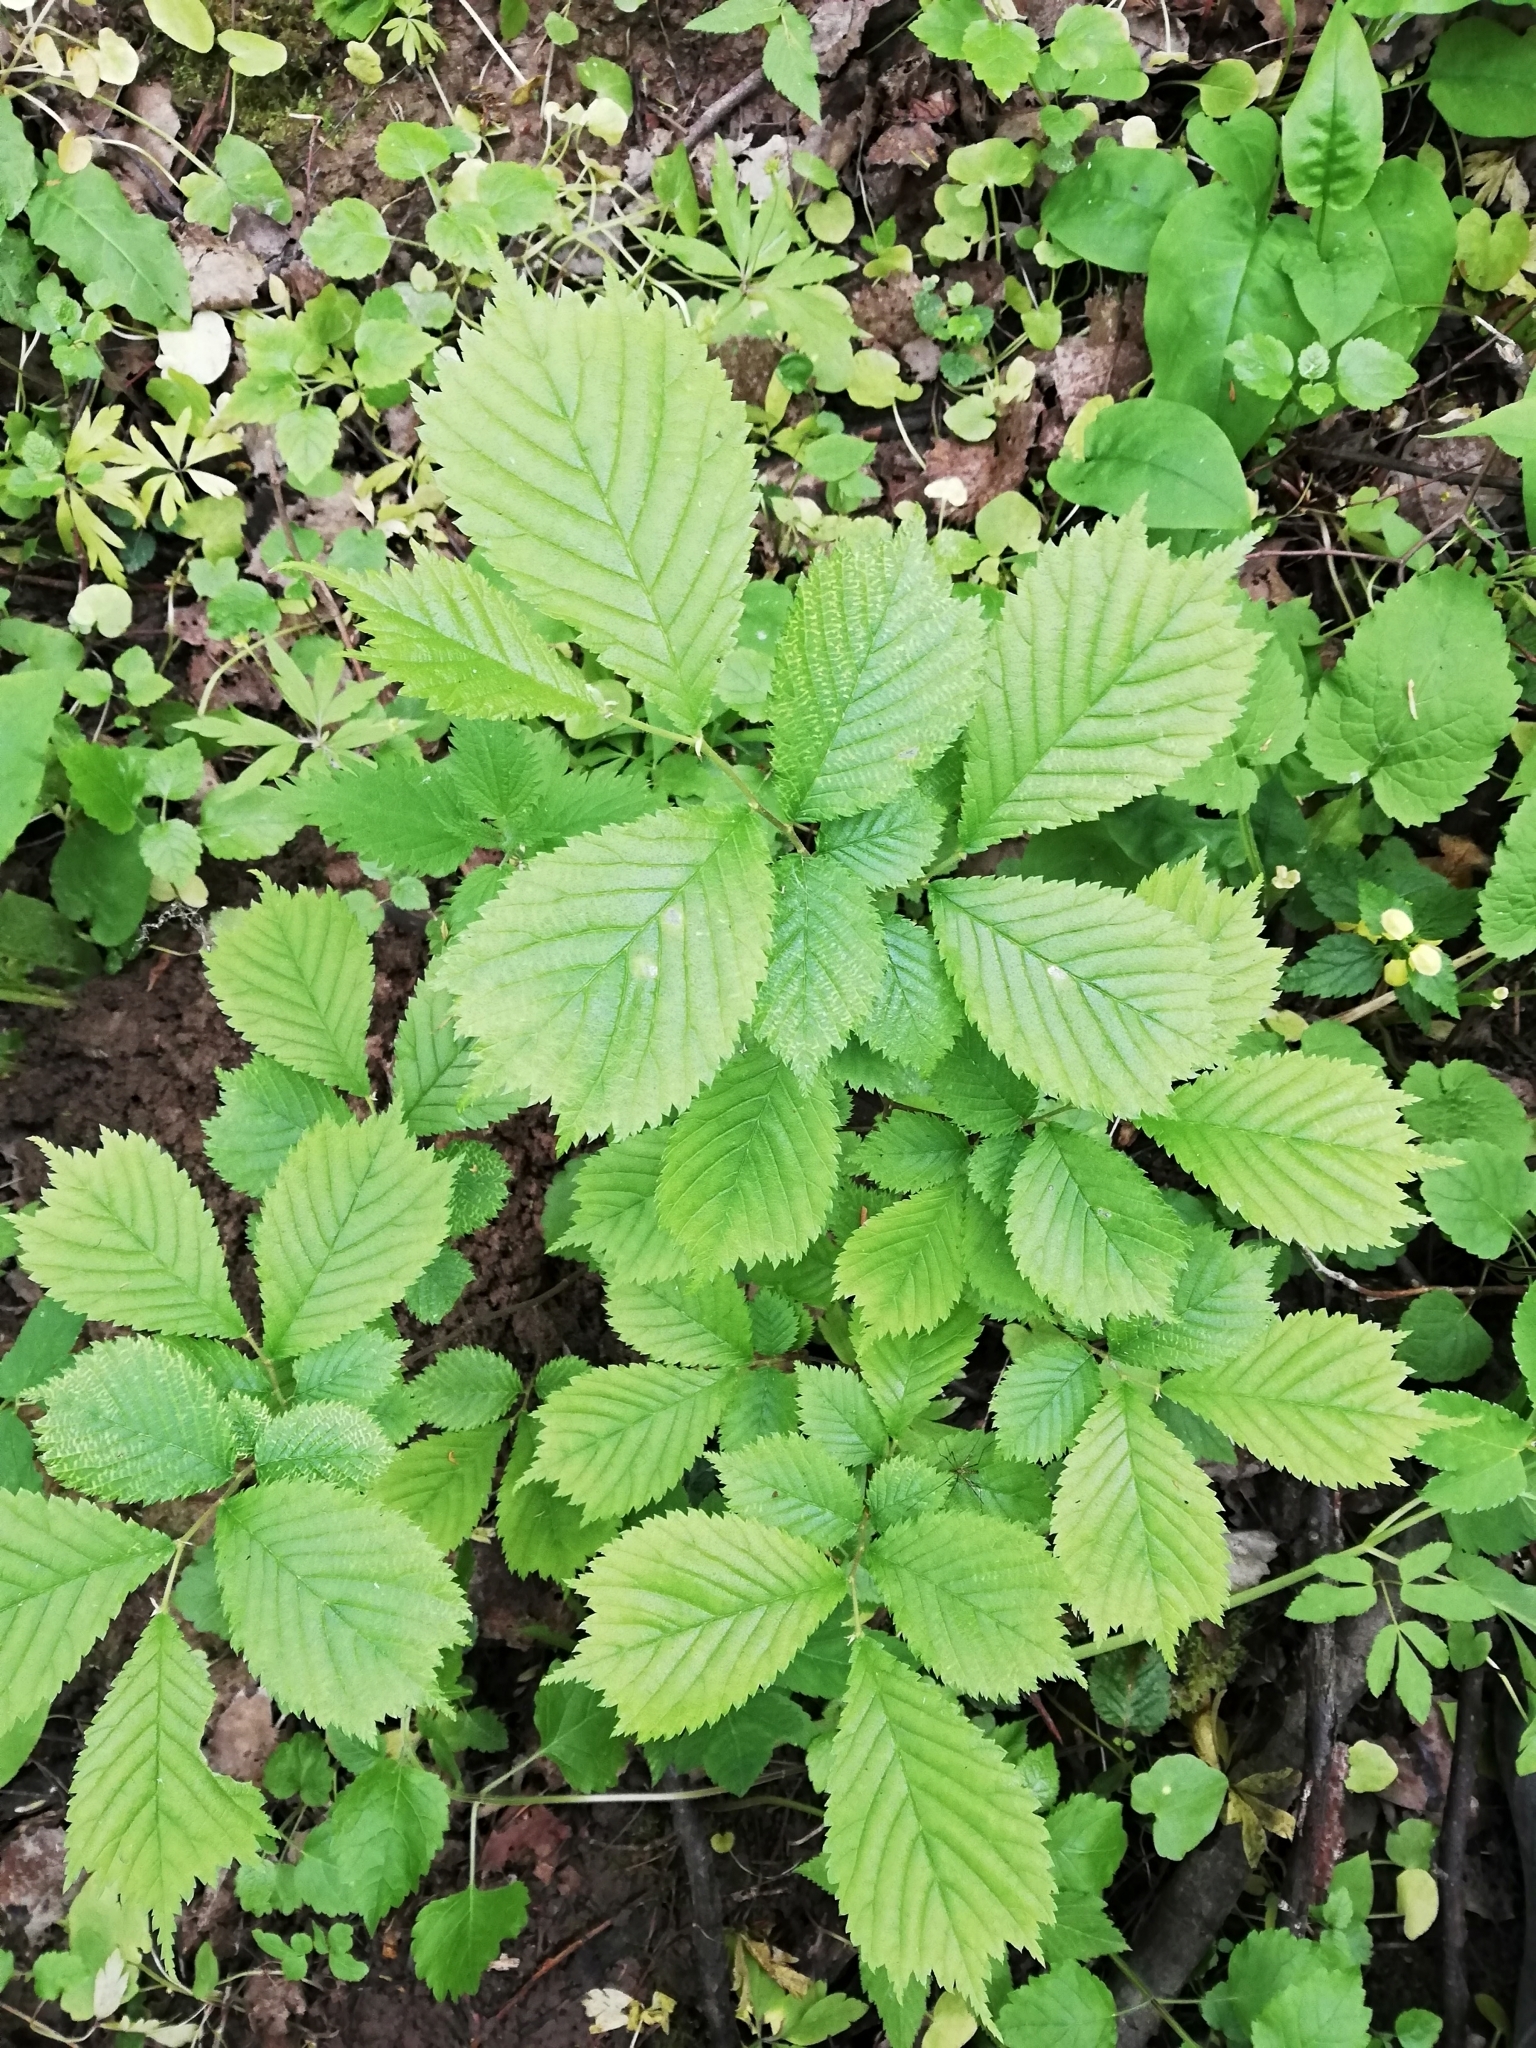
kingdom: Plantae
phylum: Tracheophyta
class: Magnoliopsida
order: Rosales
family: Ulmaceae
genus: Ulmus
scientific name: Ulmus glabra
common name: Wych elm
